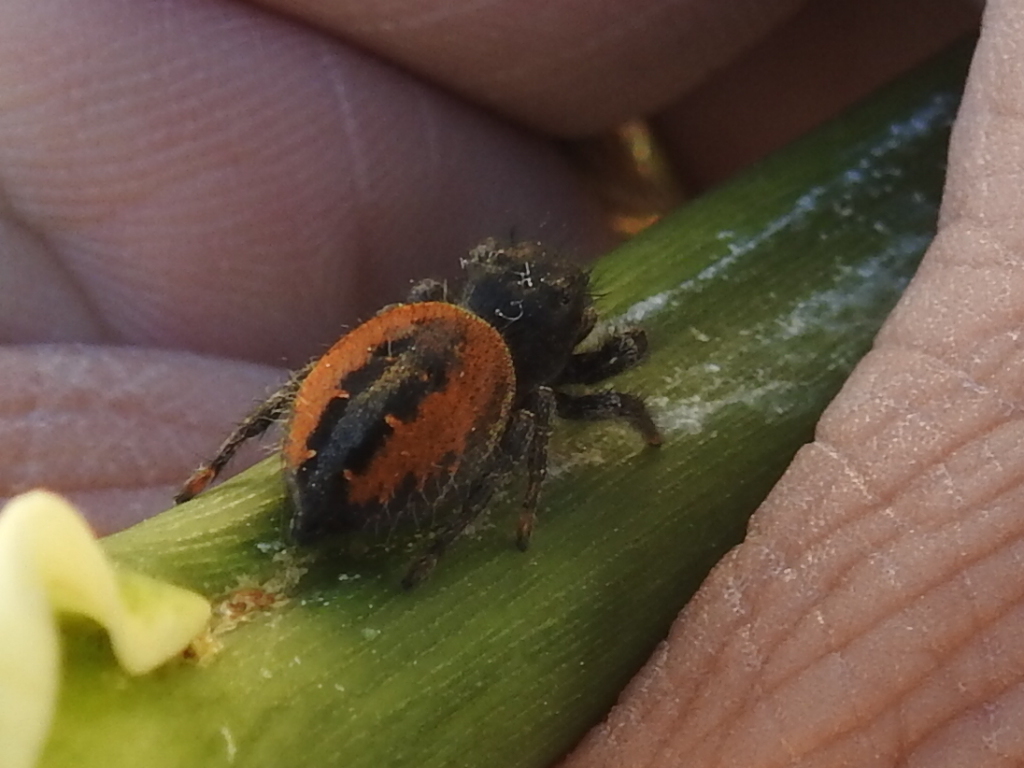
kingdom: Animalia
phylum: Arthropoda
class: Arachnida
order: Araneae
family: Salticidae
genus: Phidippus
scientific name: Phidippus johnsoni
